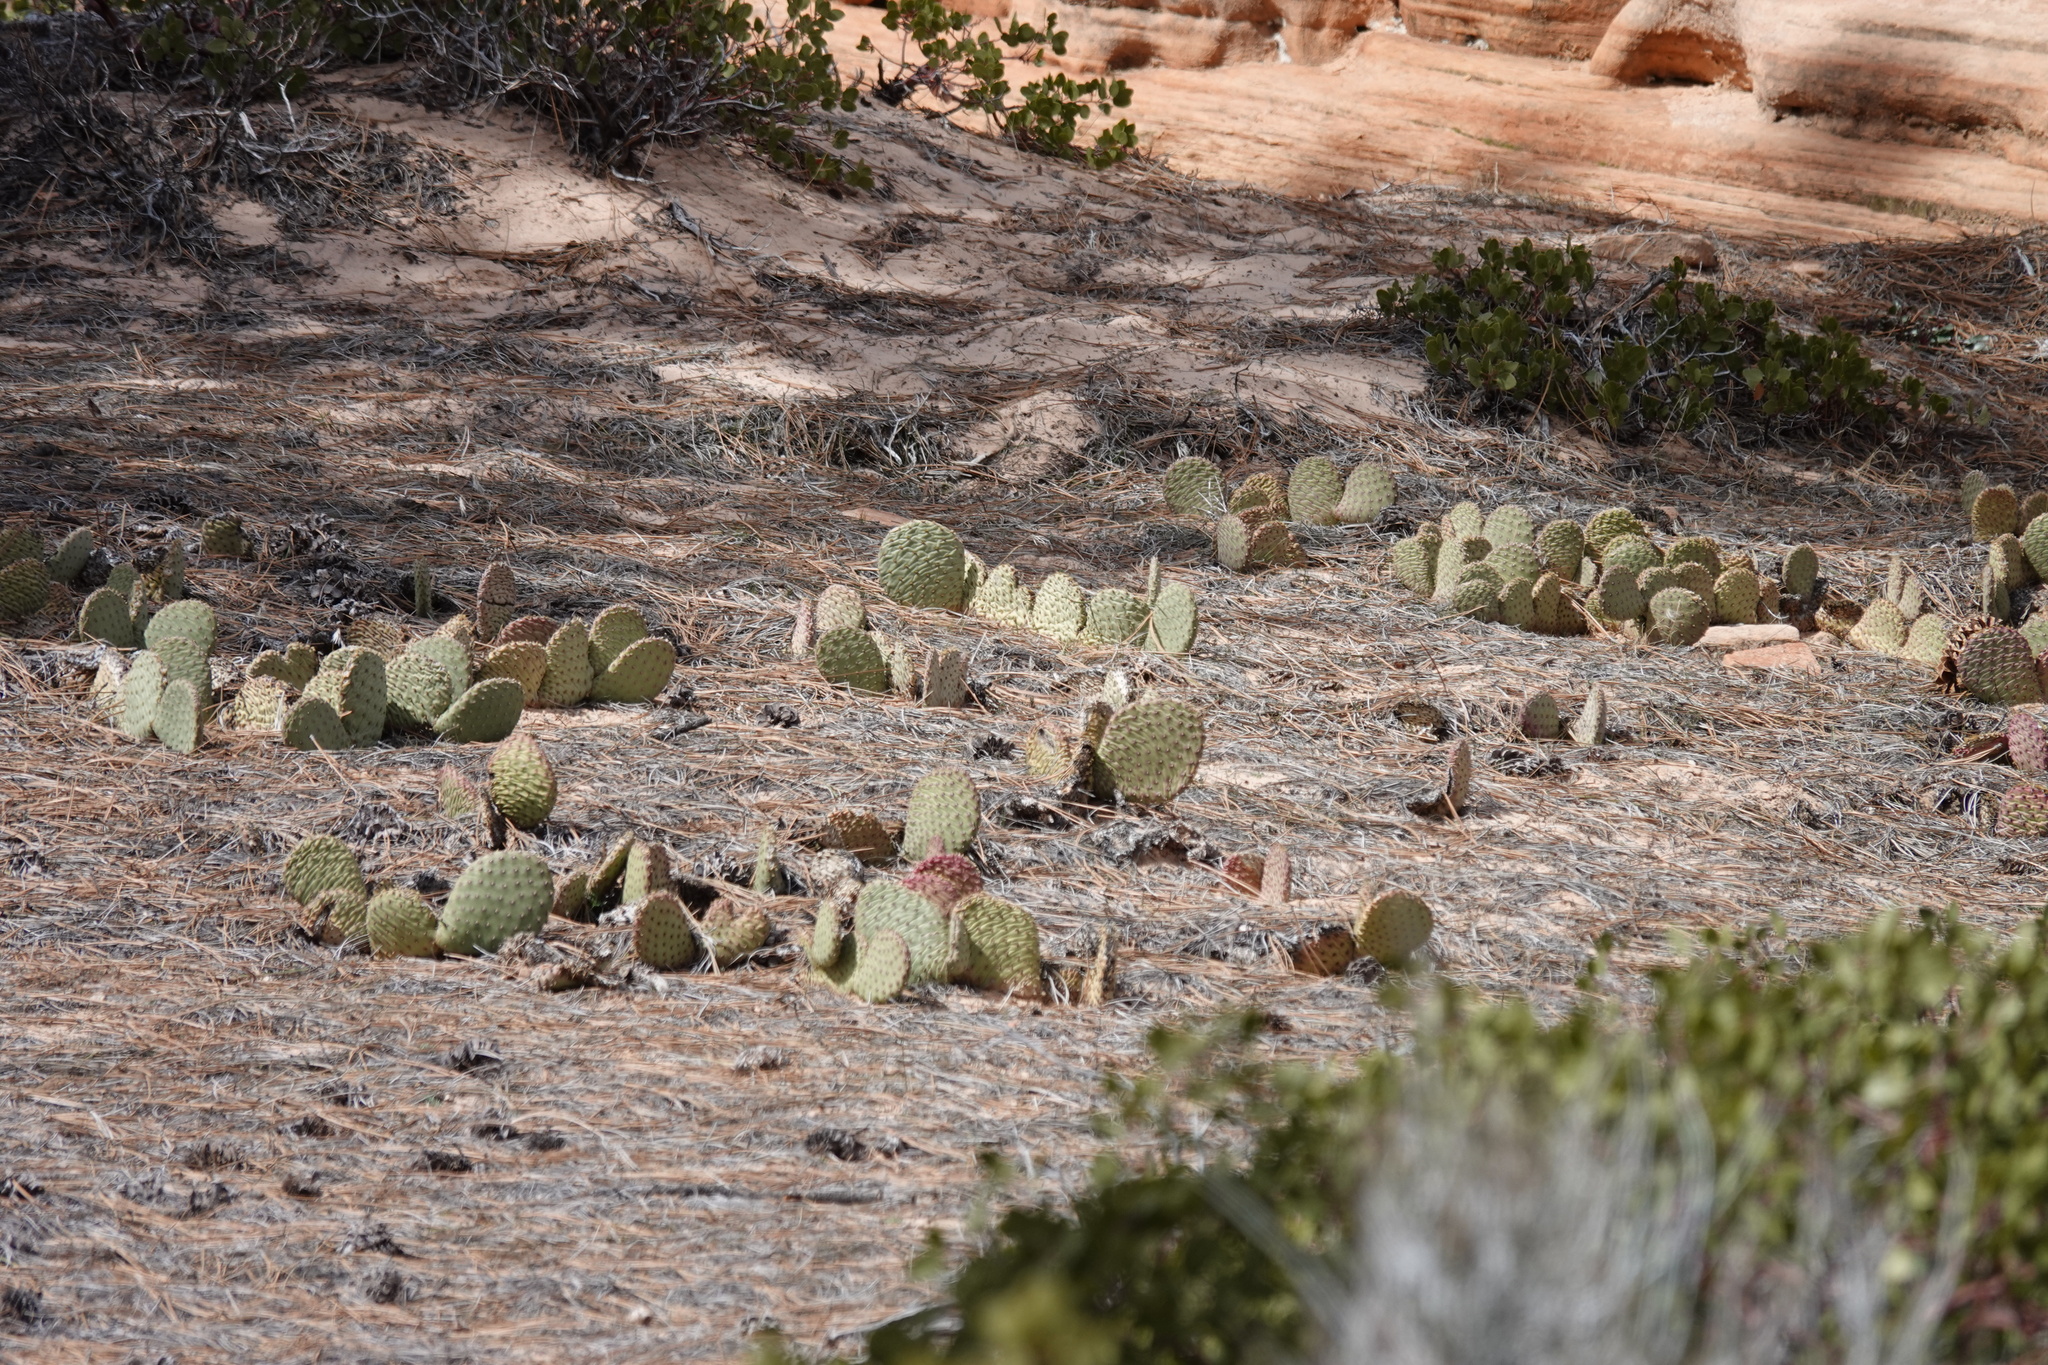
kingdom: Plantae
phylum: Tracheophyta
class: Magnoliopsida
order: Caryophyllales
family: Cactaceae
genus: Opuntia
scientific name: Opuntia aurea
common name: Golden prickly-pear
